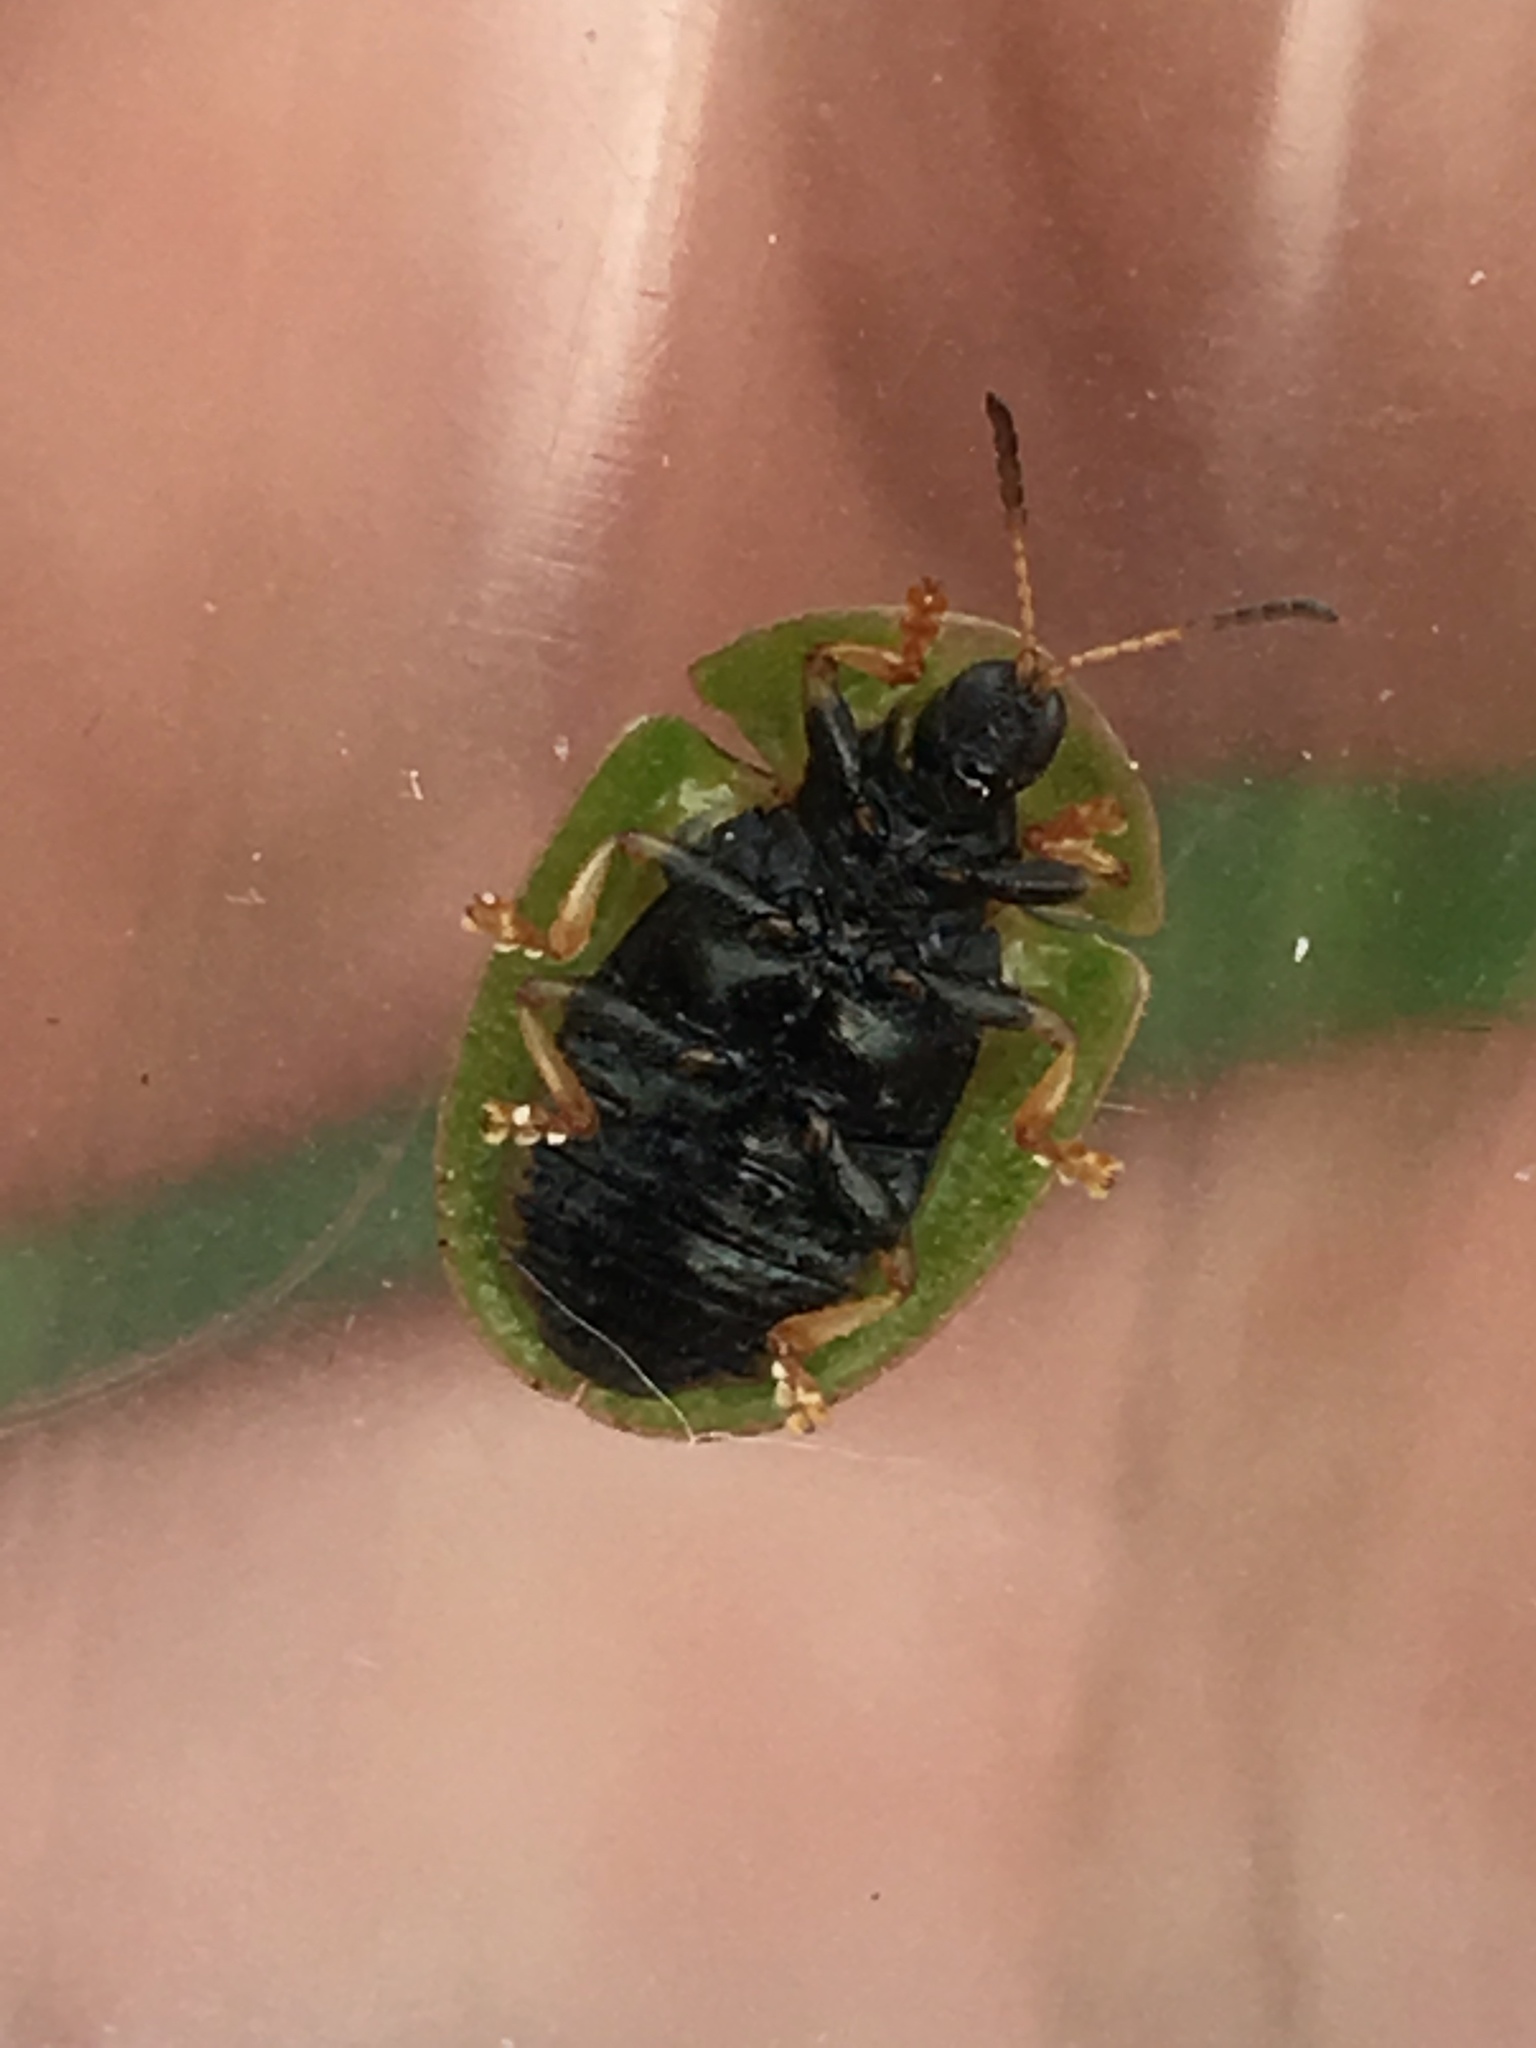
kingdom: Animalia
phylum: Arthropoda
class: Insecta
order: Coleoptera
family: Chrysomelidae
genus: Cassida
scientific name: Cassida rubiginosa
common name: Thistle tortoise beetle
